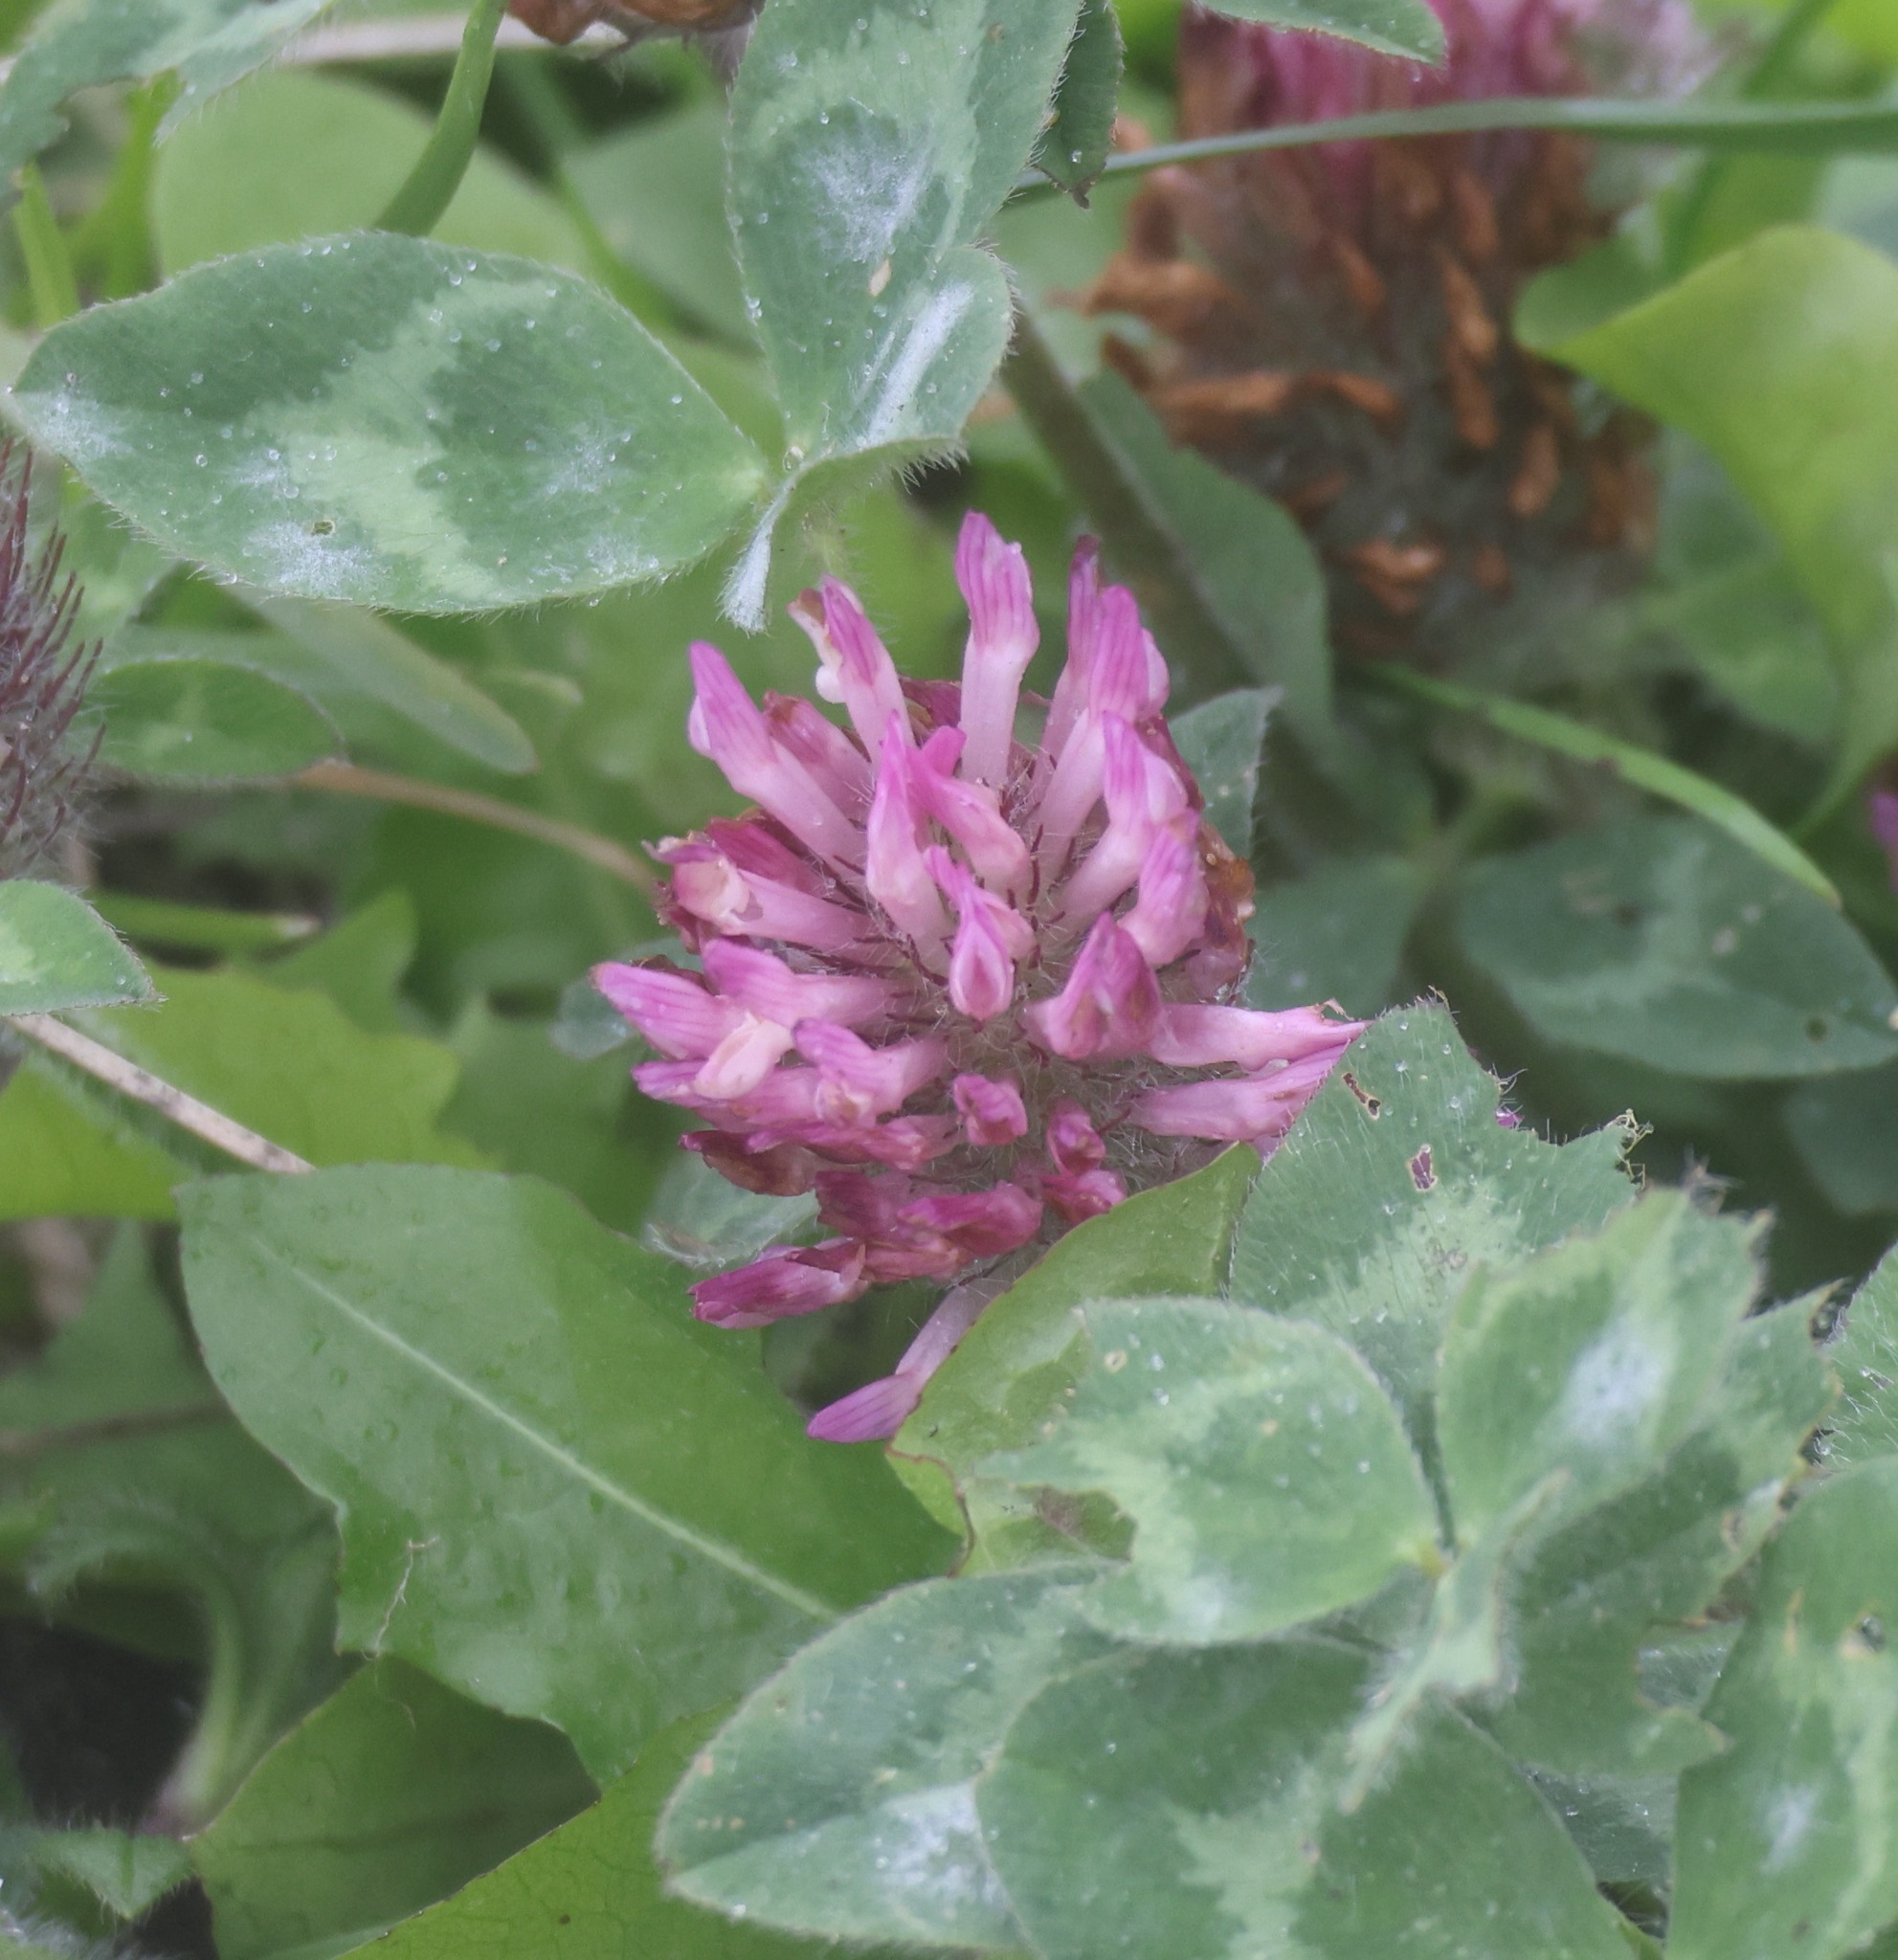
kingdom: Plantae
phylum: Tracheophyta
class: Magnoliopsida
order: Fabales
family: Fabaceae
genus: Trifolium
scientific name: Trifolium pratense
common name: Red clover
